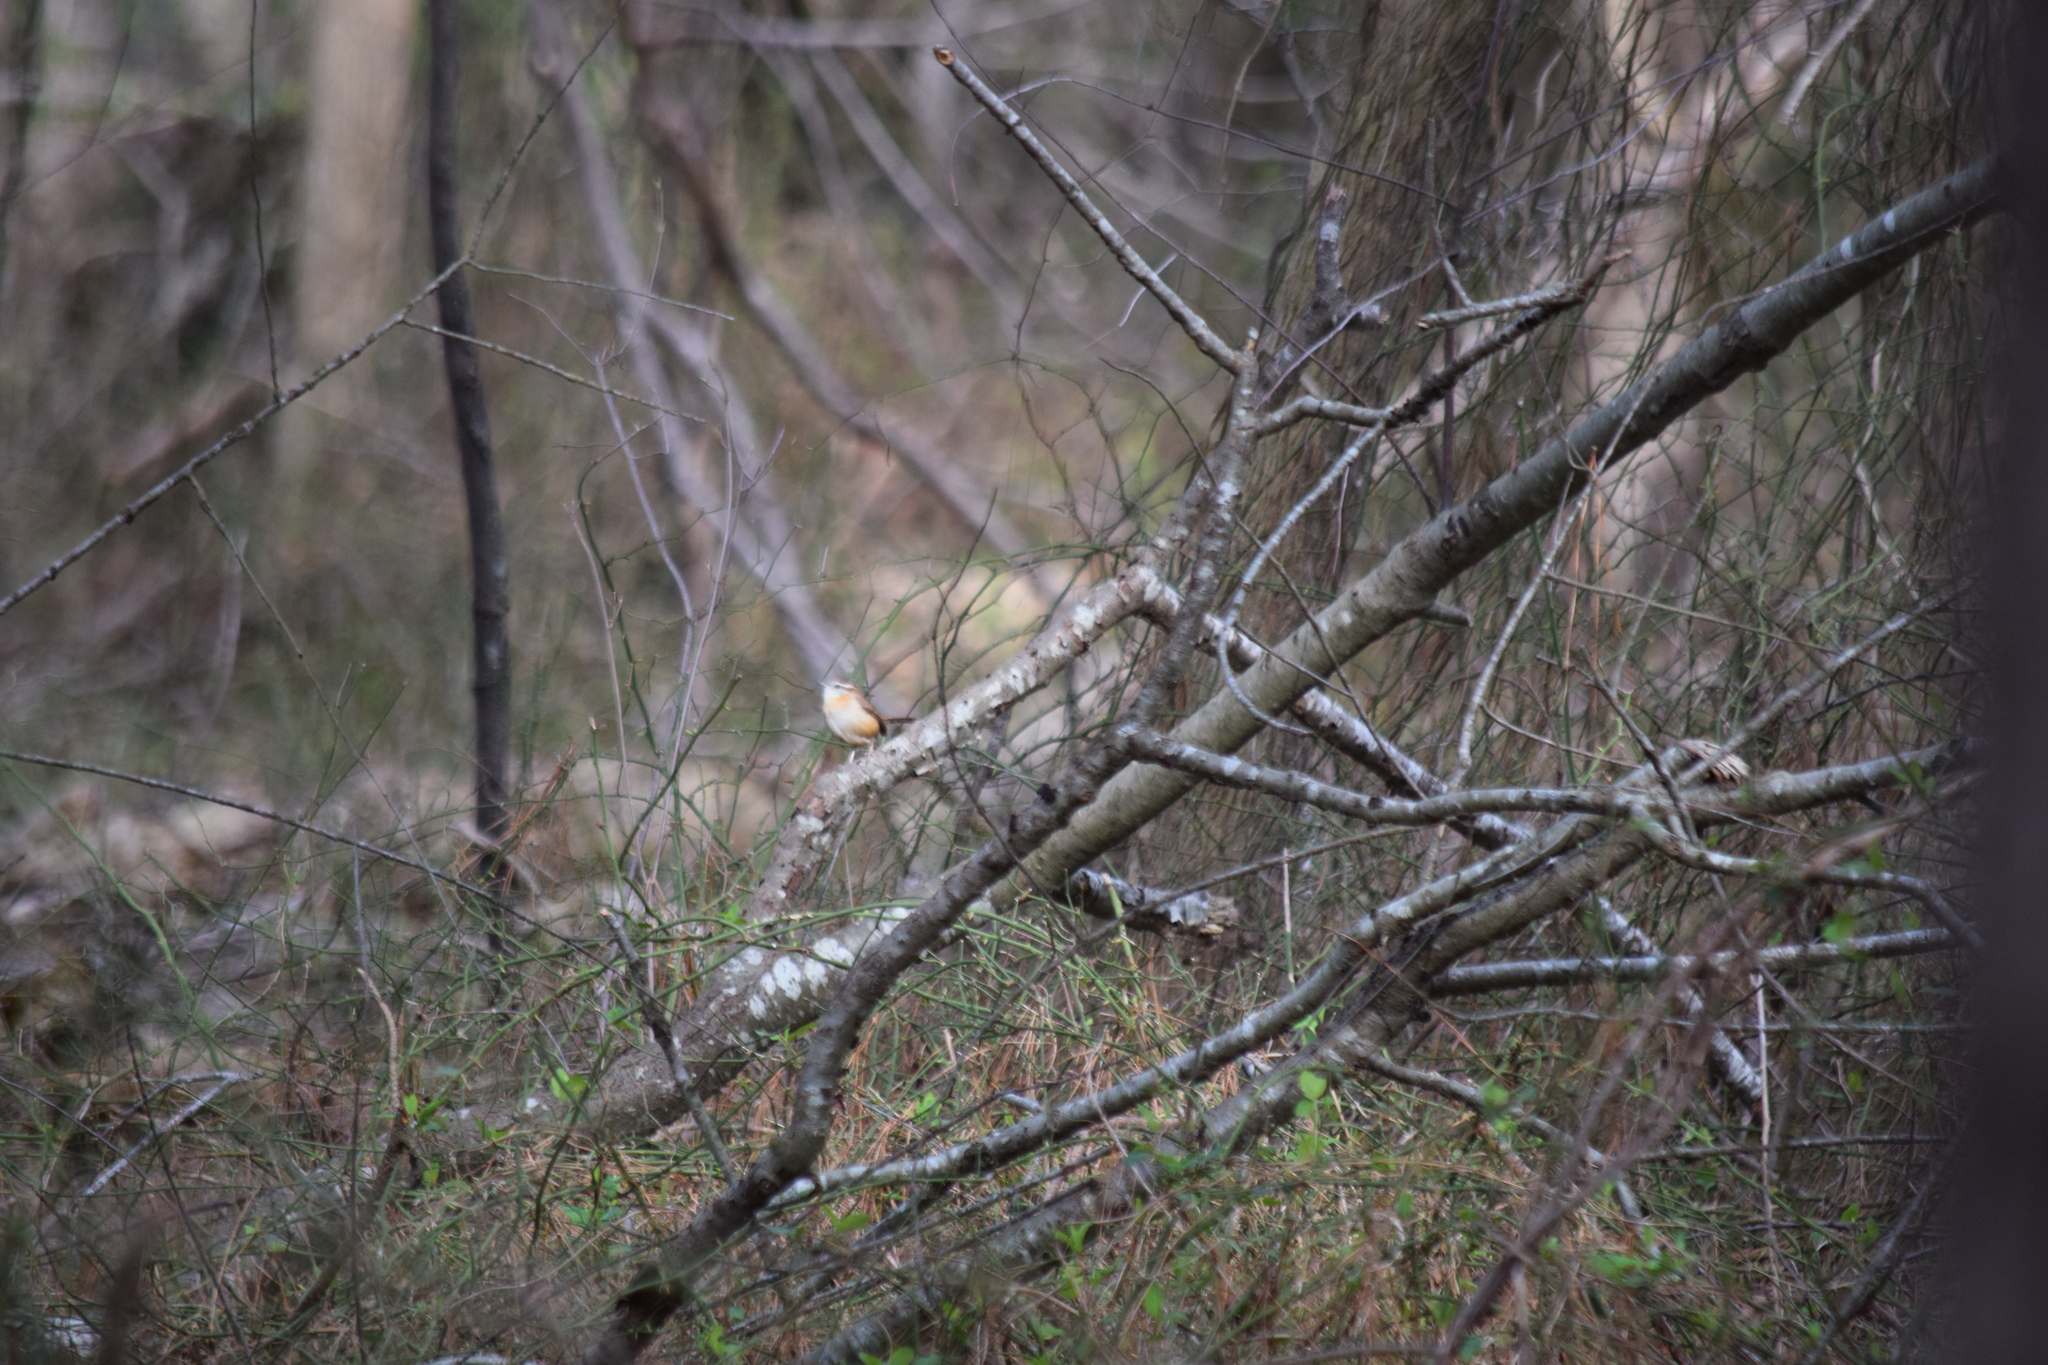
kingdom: Animalia
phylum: Chordata
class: Aves
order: Passeriformes
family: Troglodytidae
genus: Thryothorus
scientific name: Thryothorus ludovicianus
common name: Carolina wren
